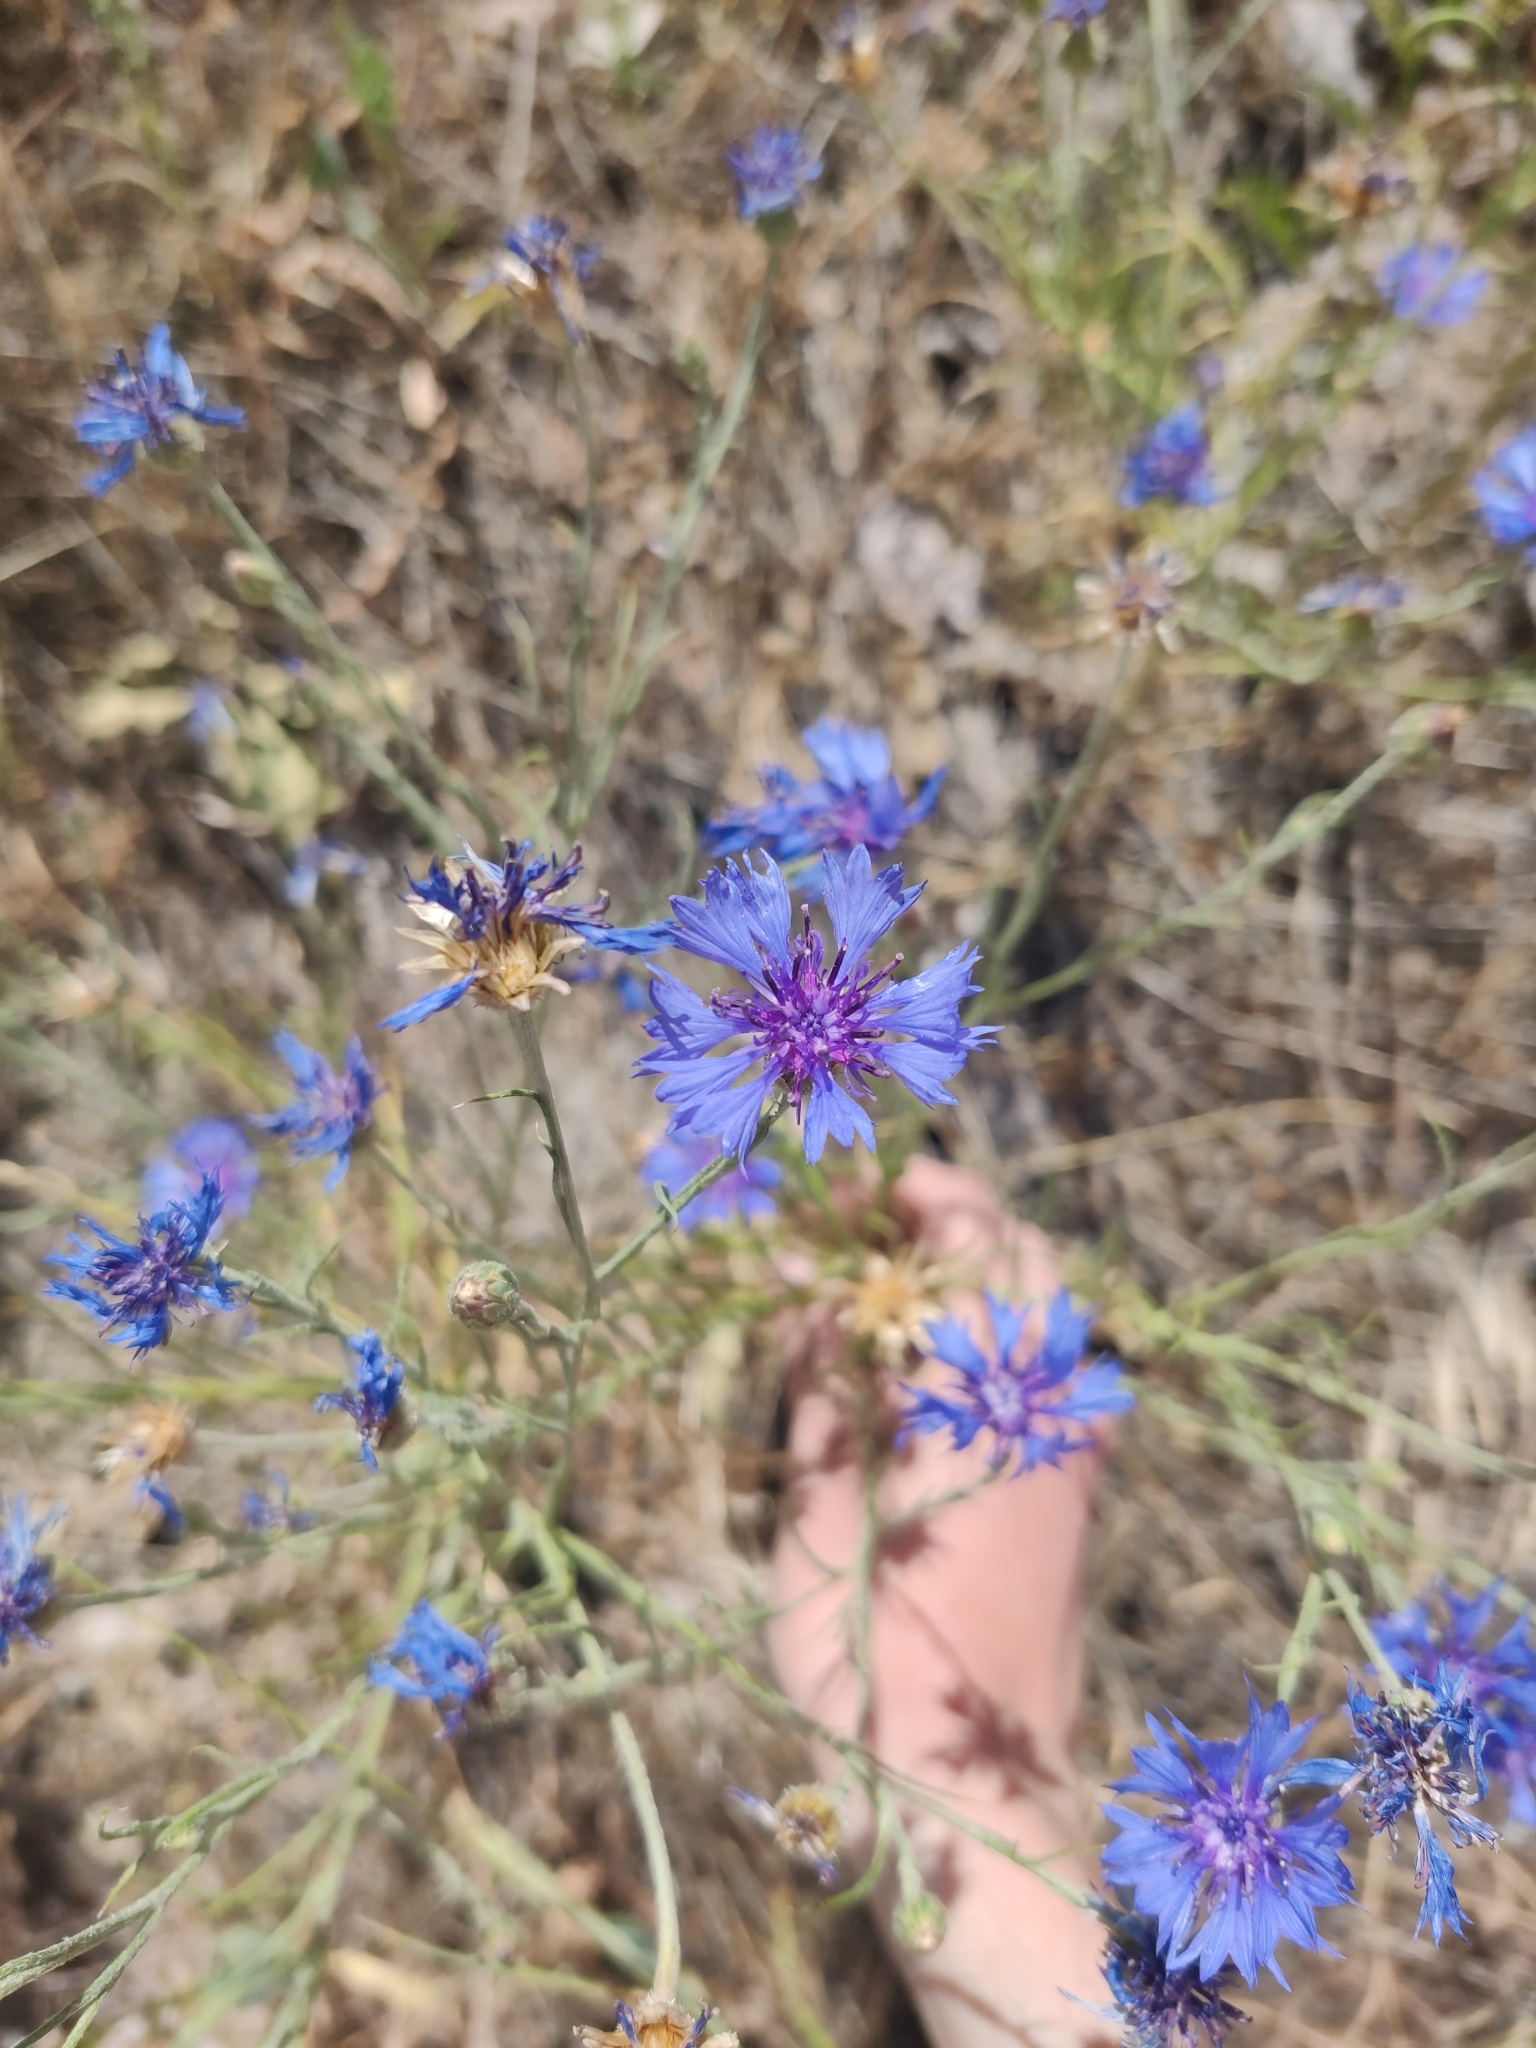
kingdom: Plantae
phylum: Tracheophyta
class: Magnoliopsida
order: Asterales
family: Asteraceae
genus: Centaurea
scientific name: Centaurea cyanus
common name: Cornflower
